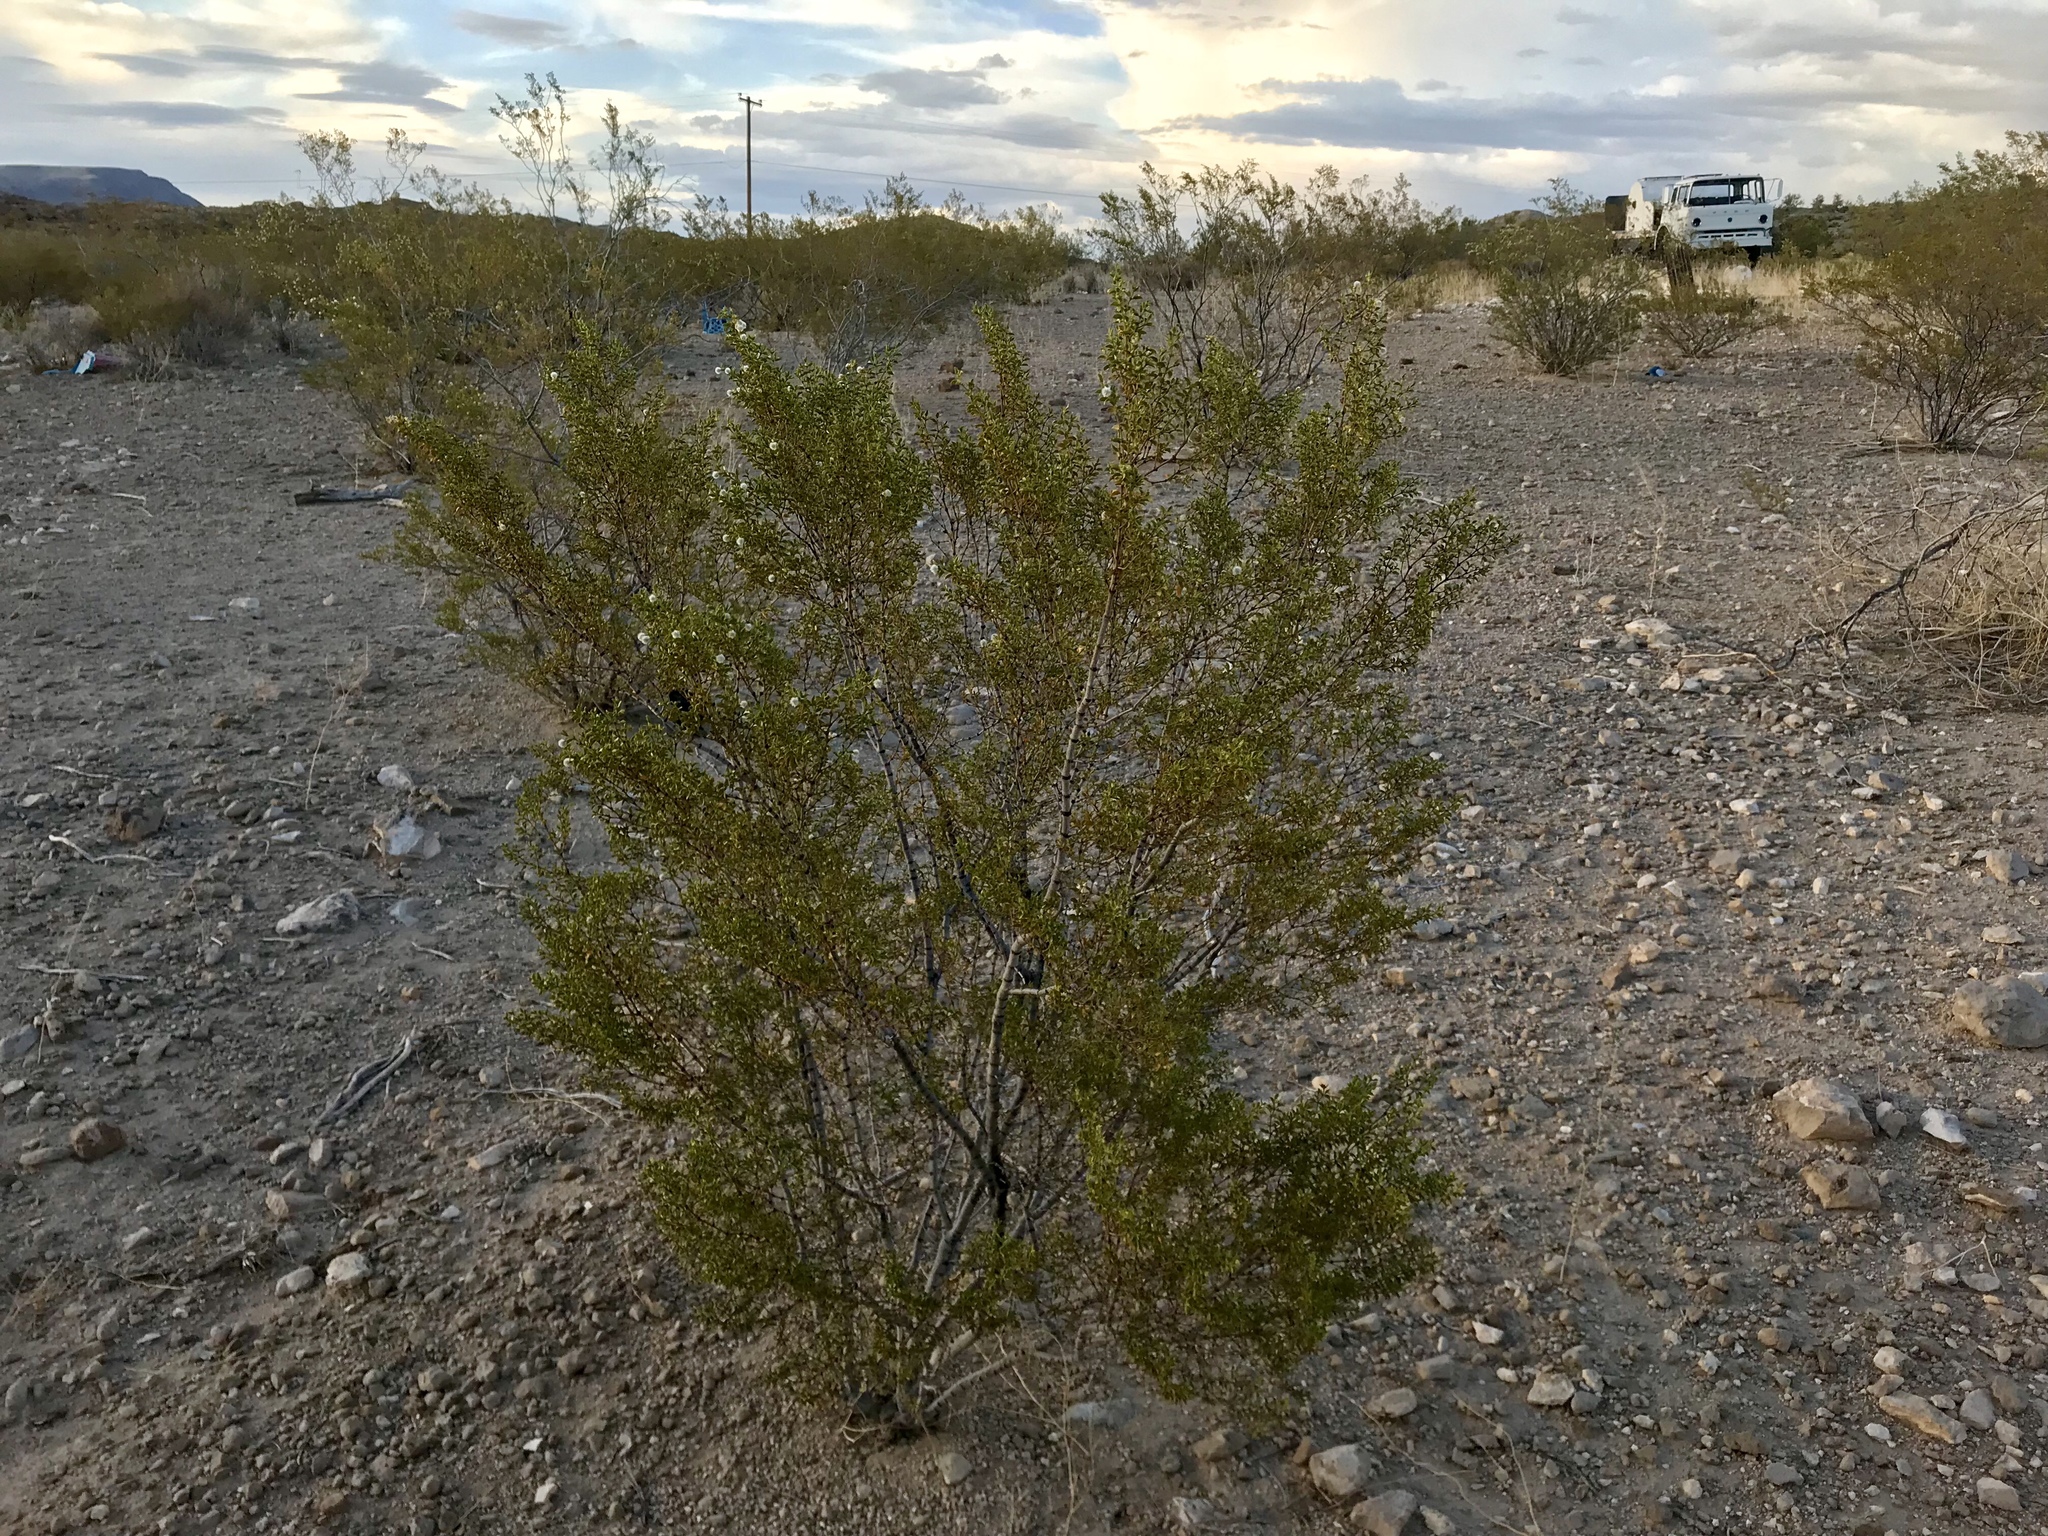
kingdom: Plantae
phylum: Tracheophyta
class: Magnoliopsida
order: Zygophyllales
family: Zygophyllaceae
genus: Larrea
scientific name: Larrea tridentata
